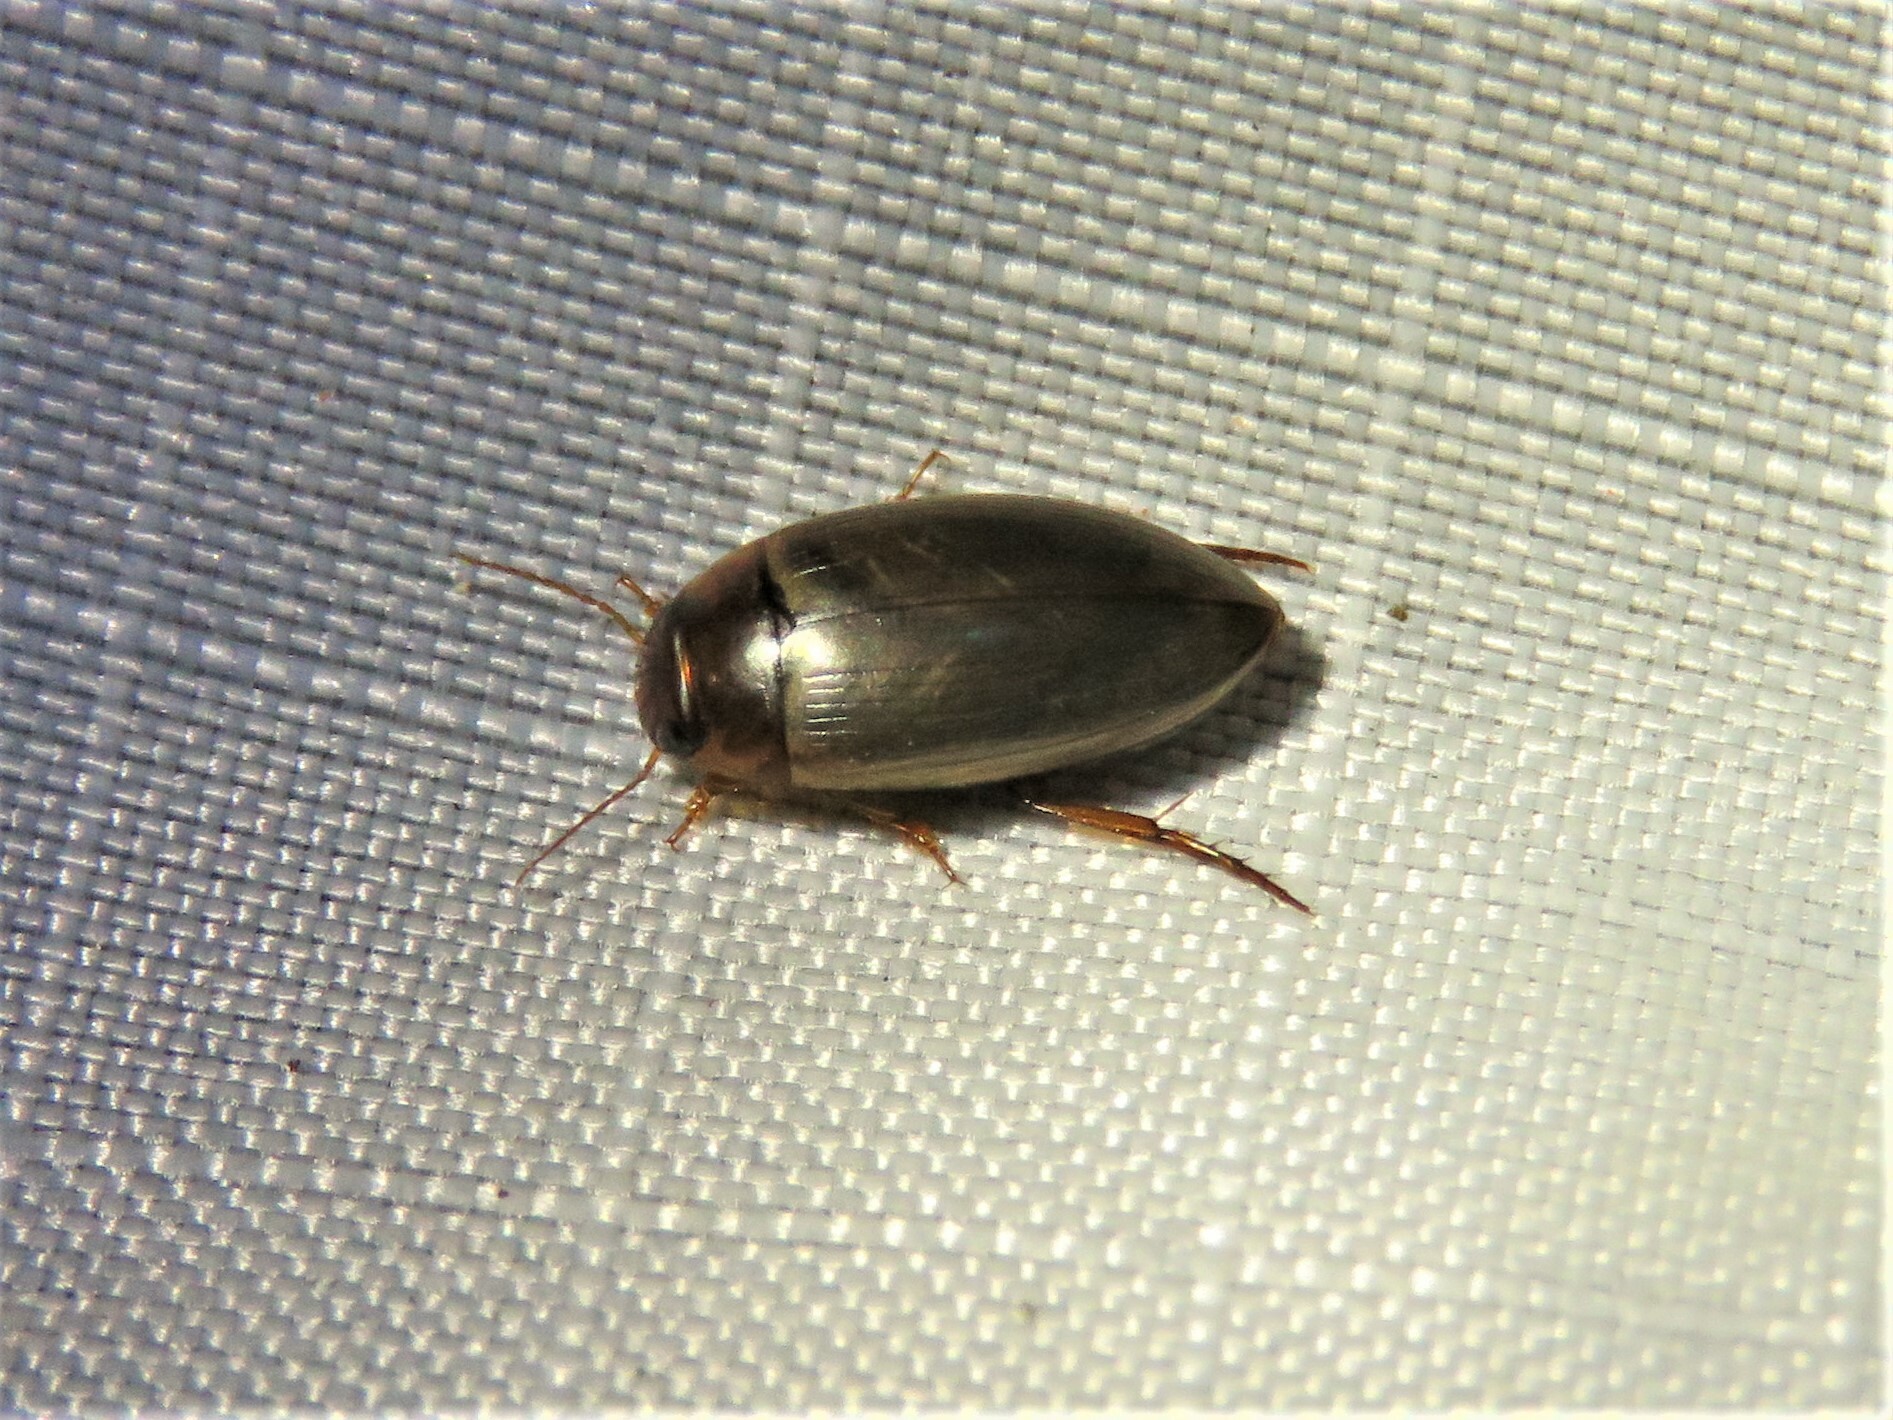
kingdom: Animalia
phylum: Arthropoda
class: Insecta
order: Coleoptera
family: Dytiscidae
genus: Copelatus
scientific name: Copelatus chevrolati
